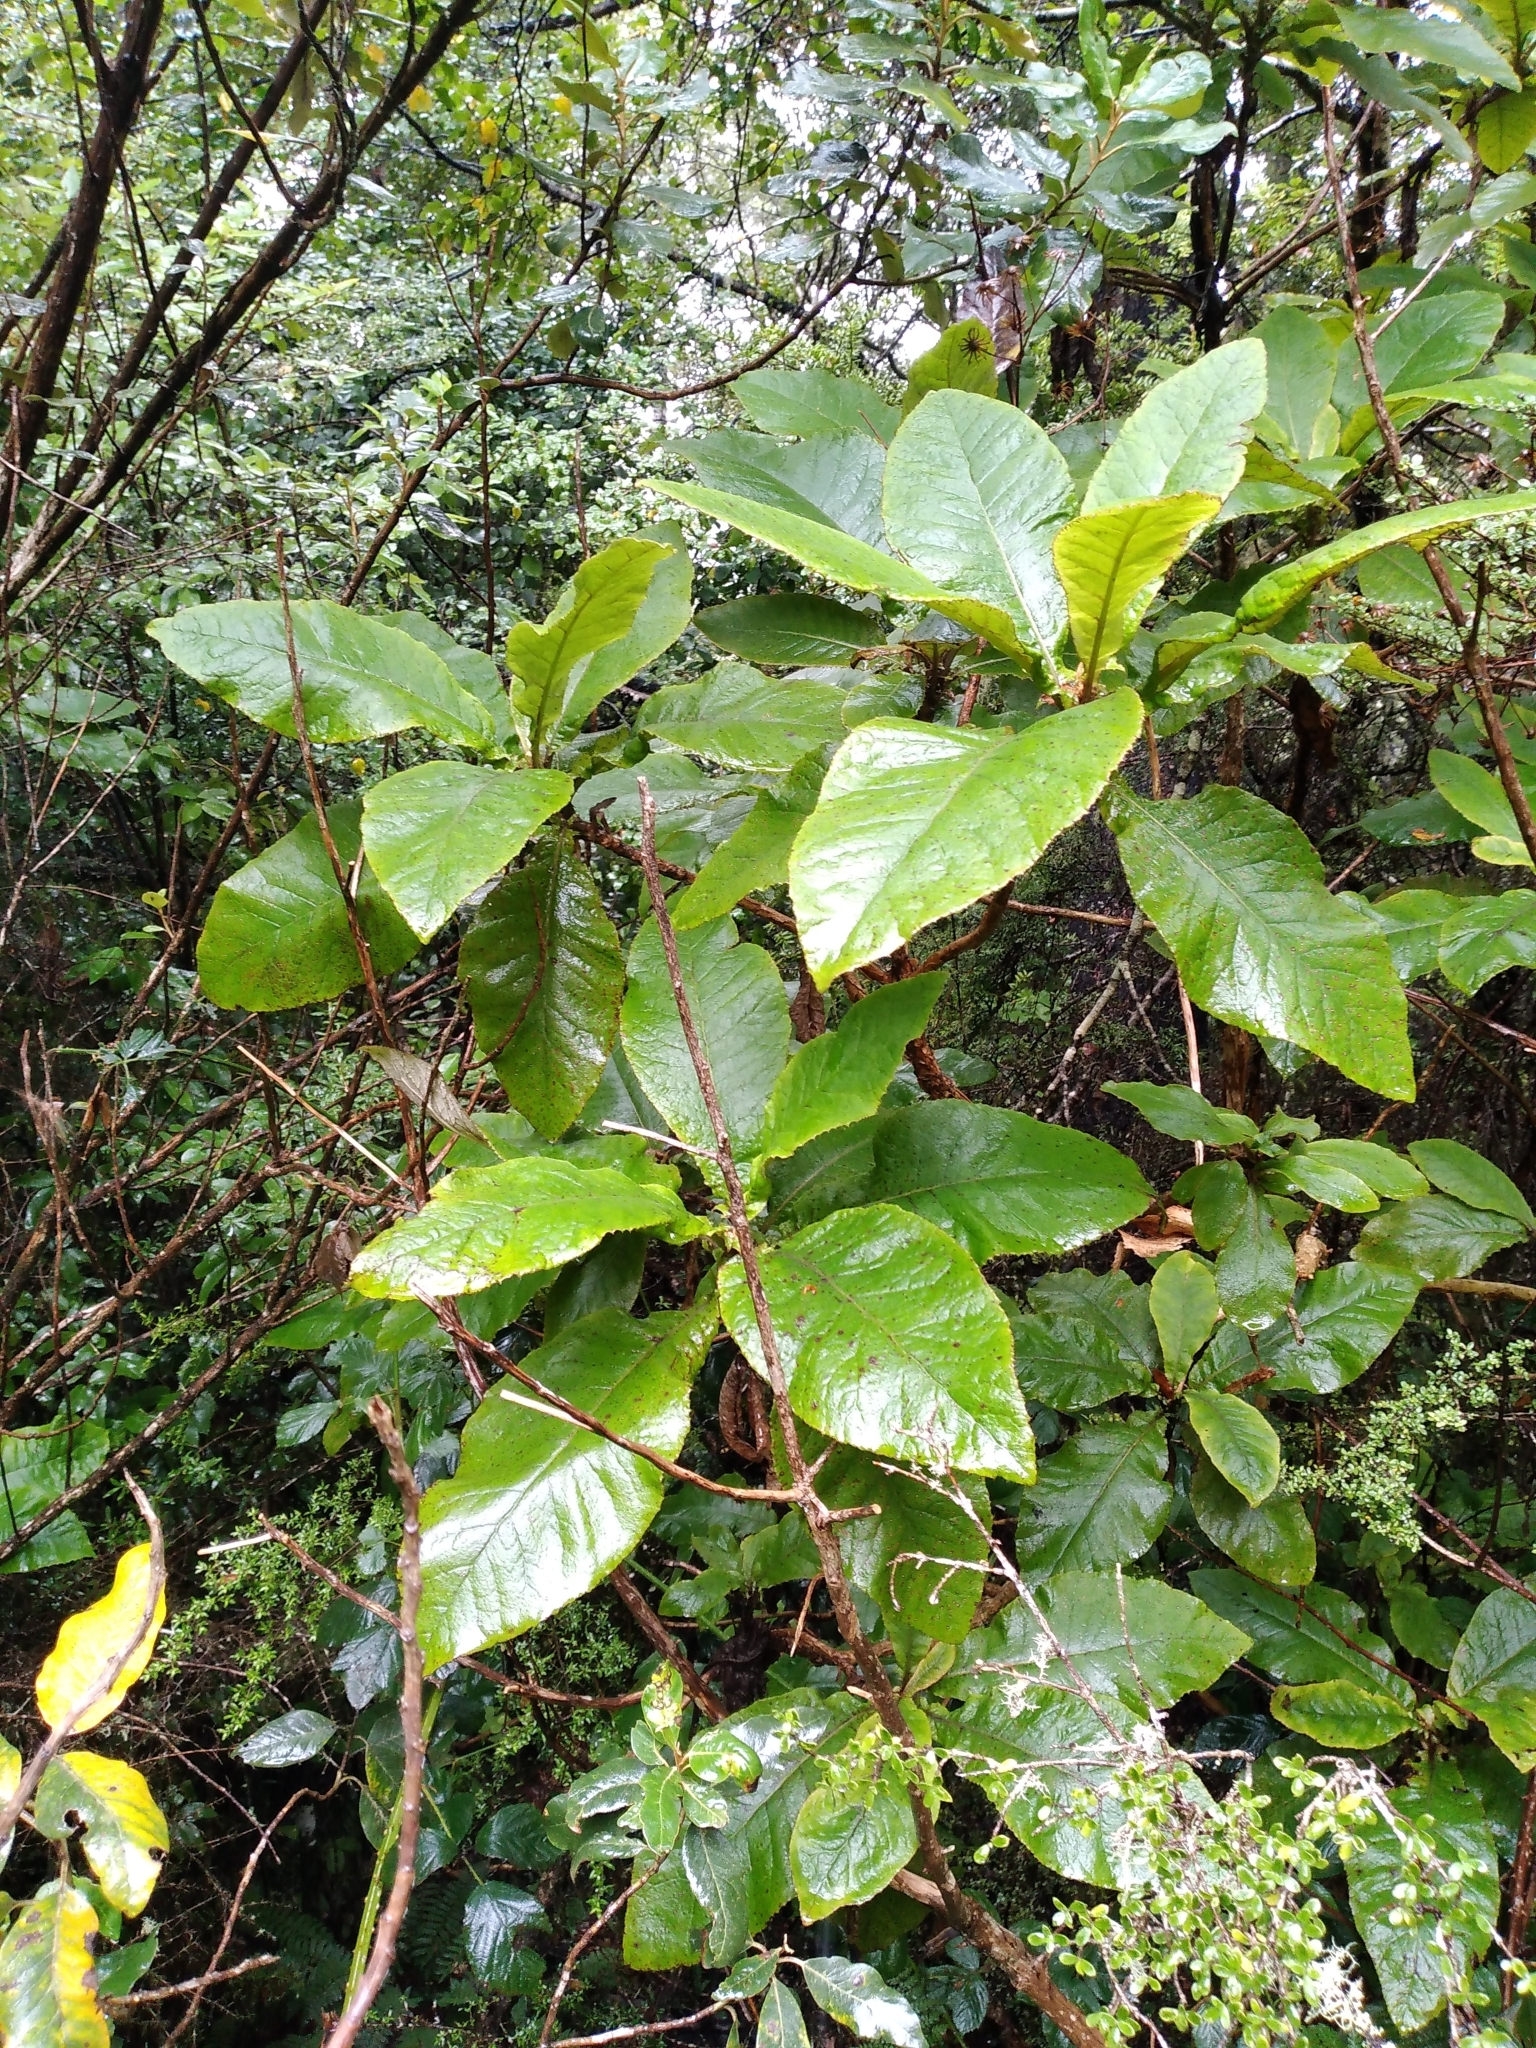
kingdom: Plantae
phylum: Tracheophyta
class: Magnoliopsida
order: Asterales
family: Asteraceae
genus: Brachyglottis
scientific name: Brachyglottis hectorii
